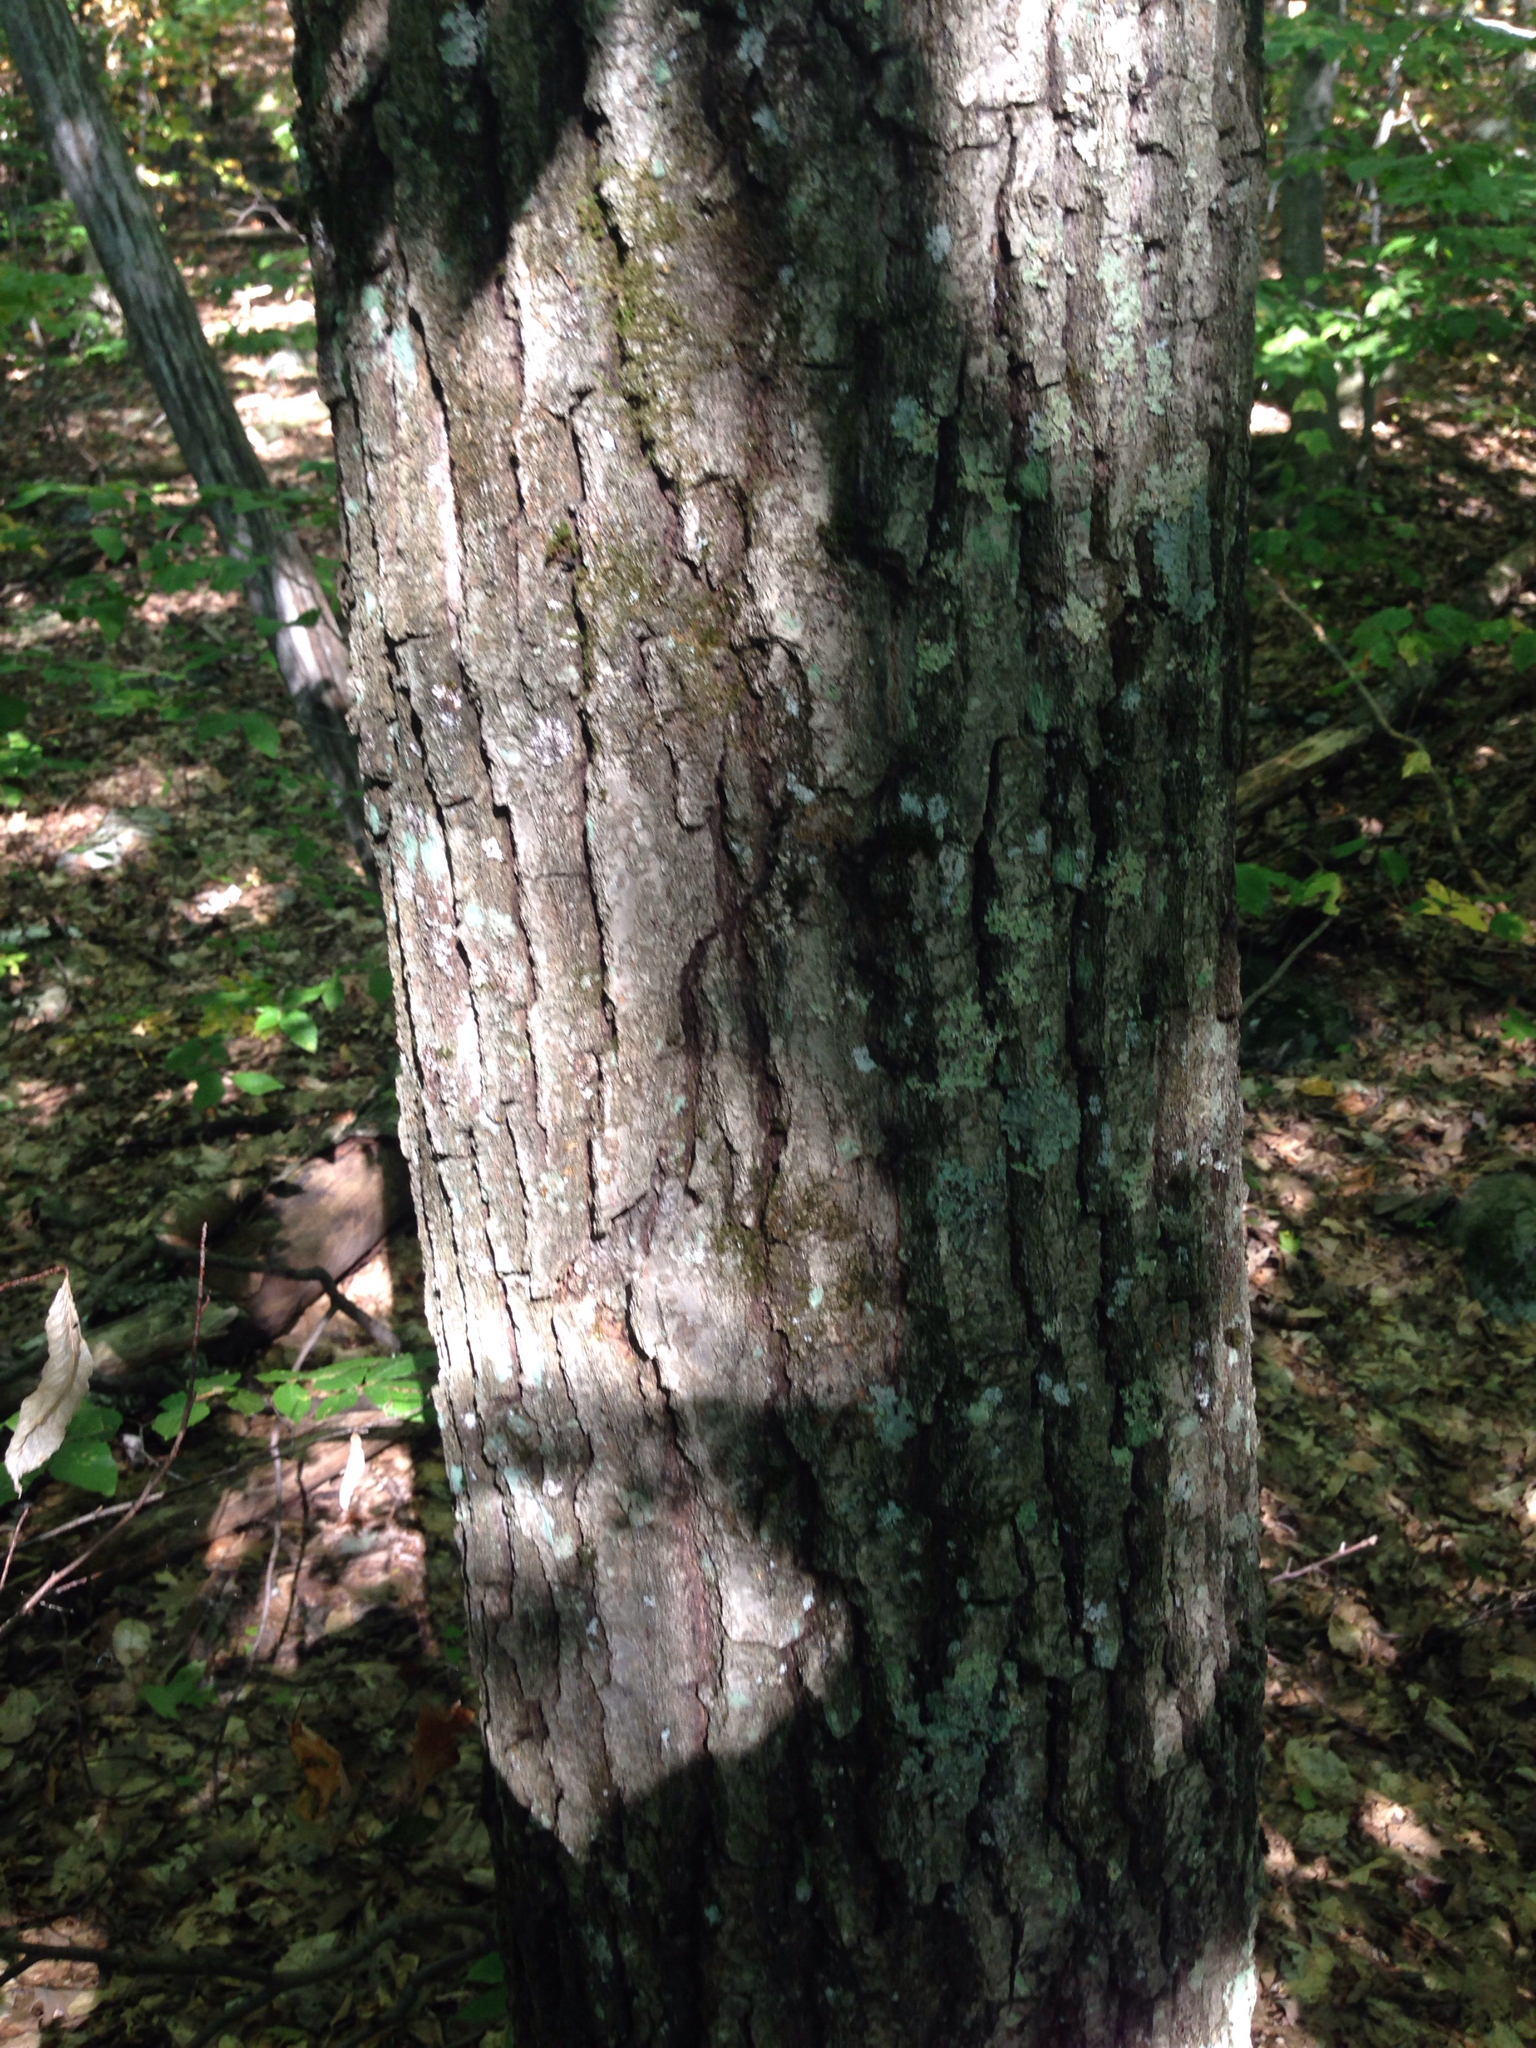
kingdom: Plantae
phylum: Tracheophyta
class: Magnoliopsida
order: Fagales
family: Fagaceae
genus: Quercus
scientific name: Quercus rubra
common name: Red oak
